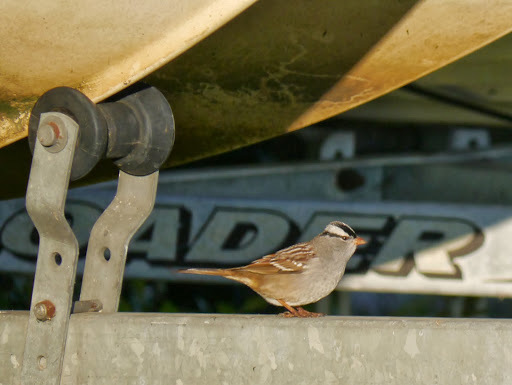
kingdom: Animalia
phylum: Chordata
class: Aves
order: Passeriformes
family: Passerellidae
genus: Zonotrichia
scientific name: Zonotrichia leucophrys
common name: White-crowned sparrow
